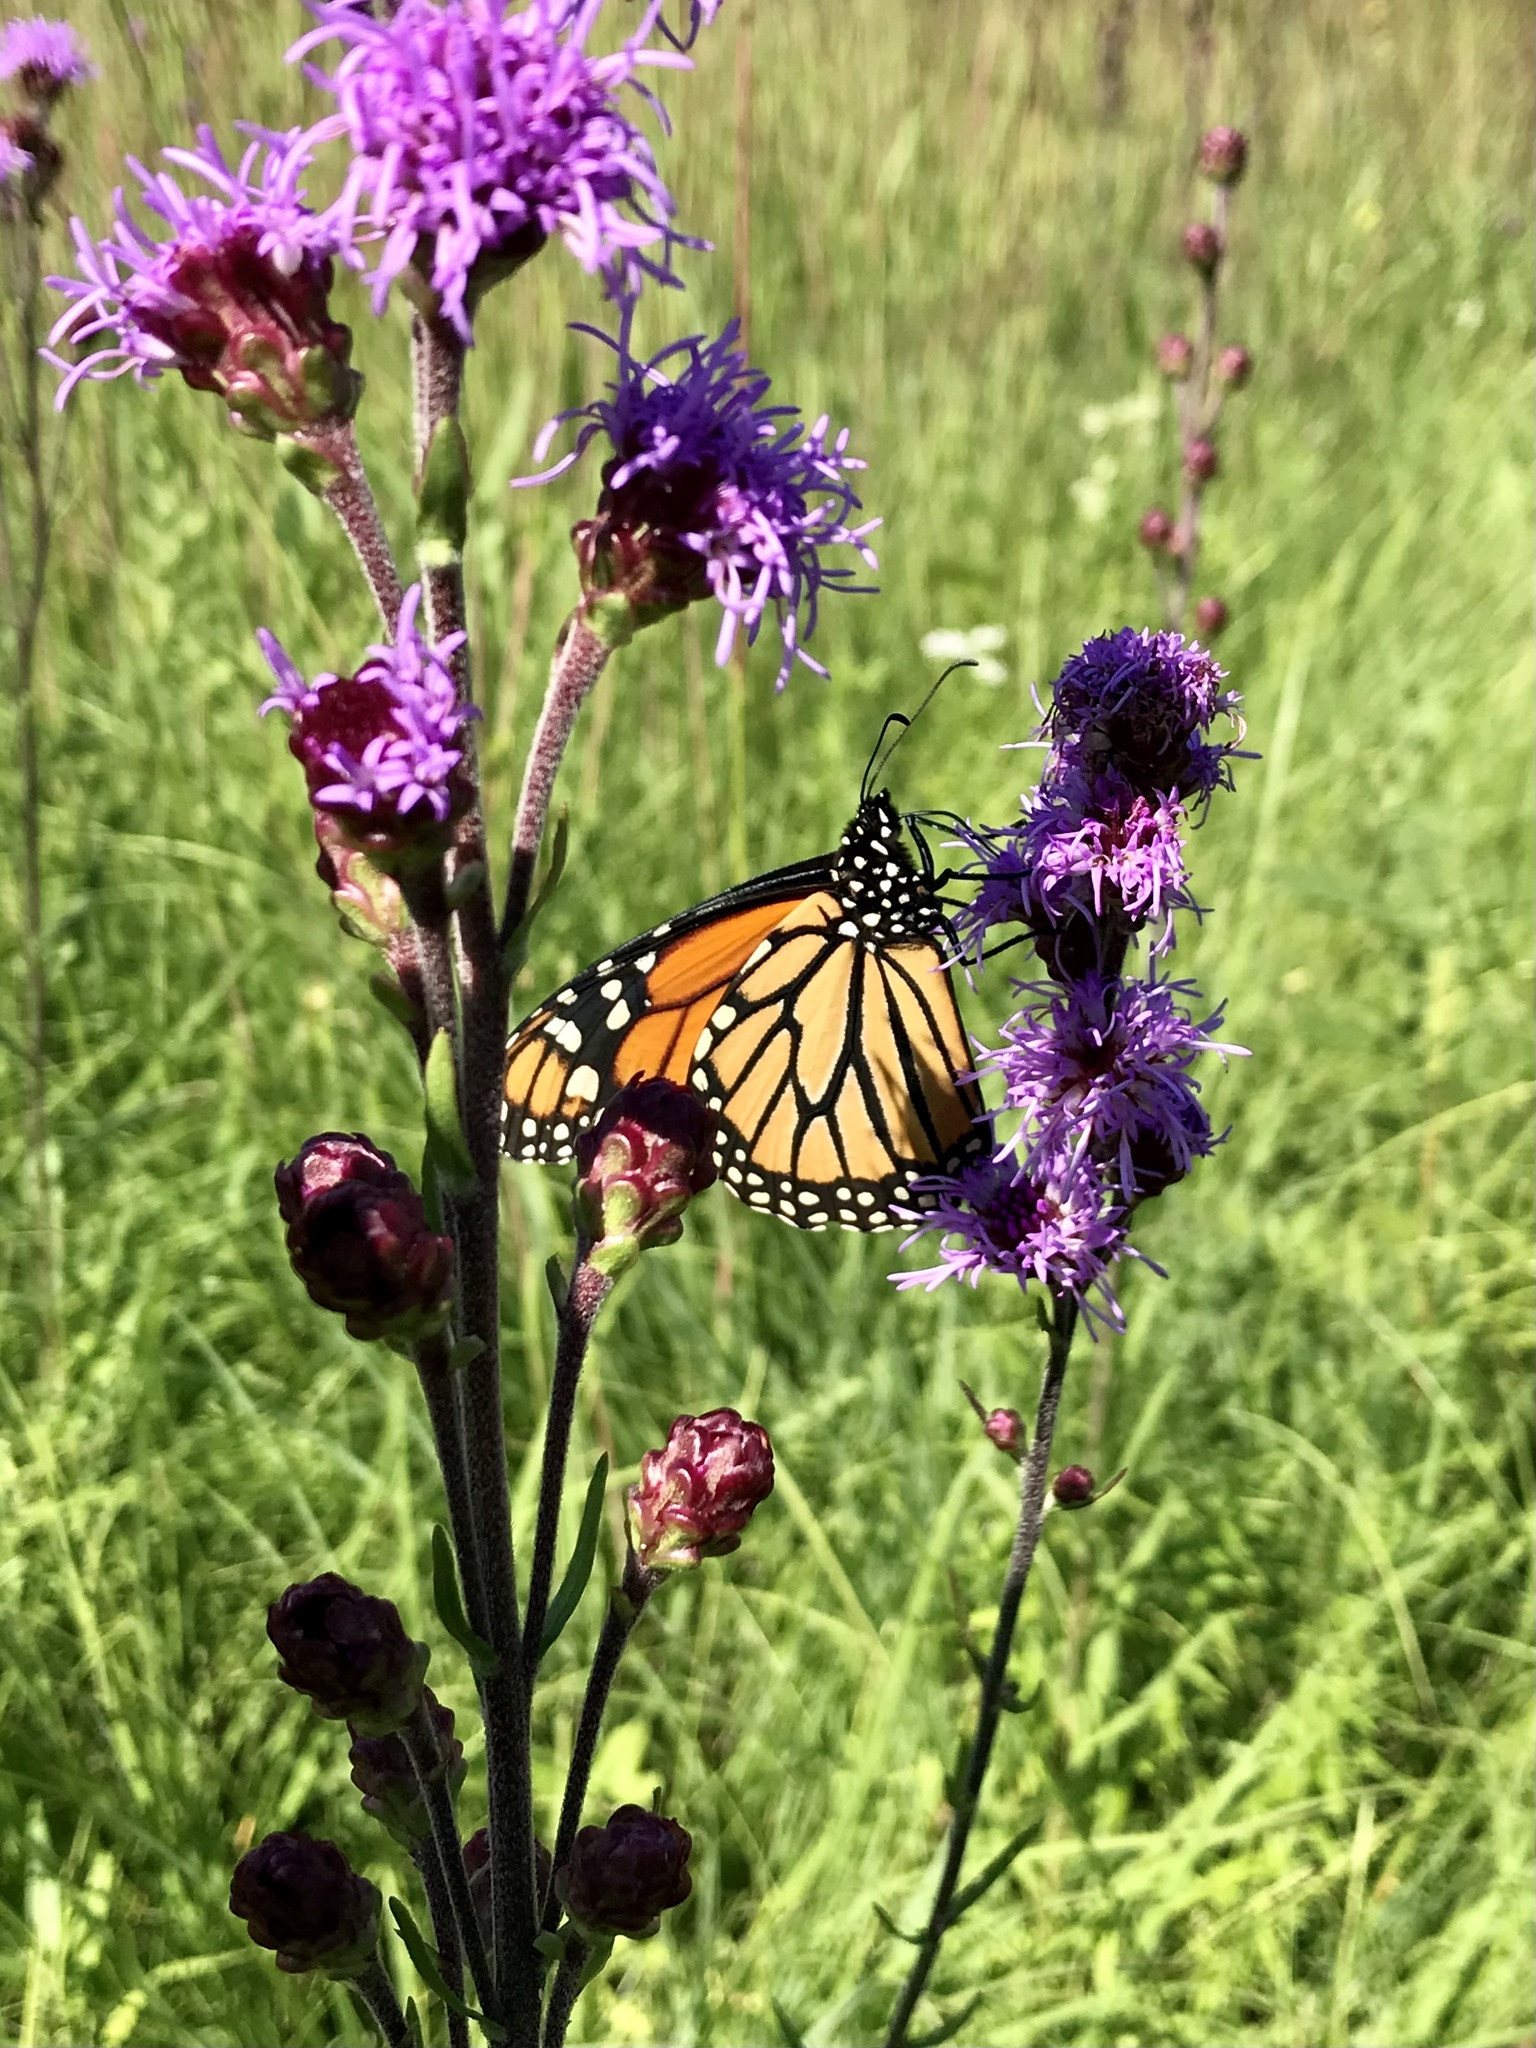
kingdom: Animalia
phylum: Arthropoda
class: Insecta
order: Lepidoptera
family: Nymphalidae
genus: Danaus
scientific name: Danaus plexippus
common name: Monarch
